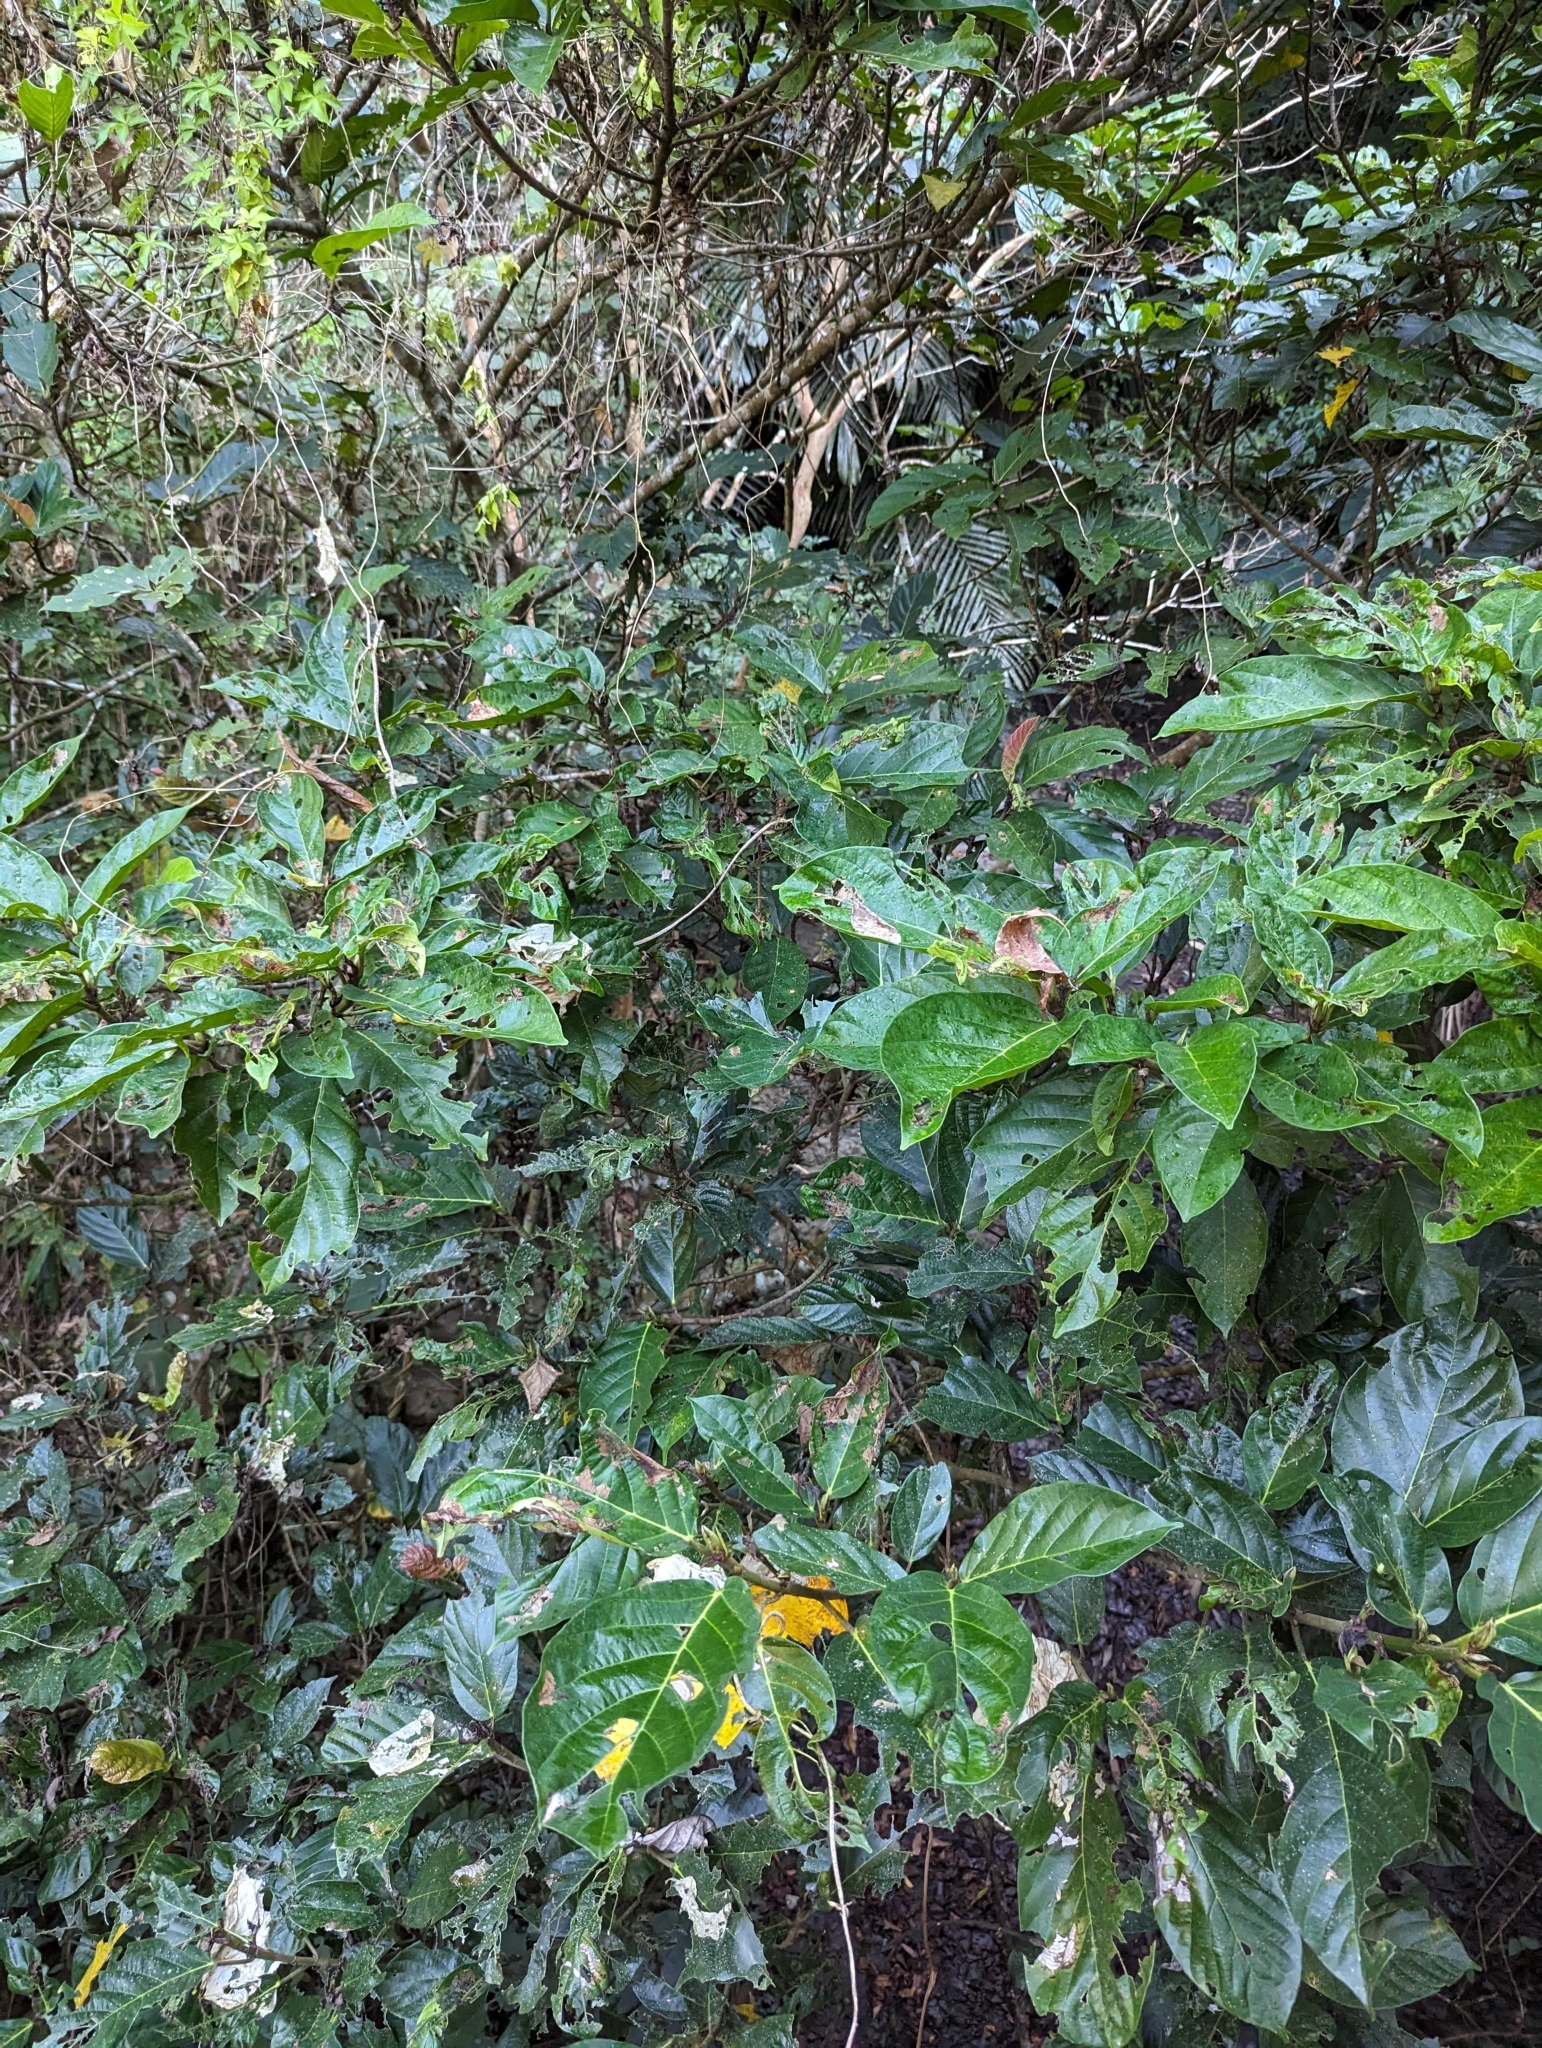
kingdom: Plantae
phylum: Tracheophyta
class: Magnoliopsida
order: Rosales
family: Moraceae
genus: Ficus
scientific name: Ficus benguetensis
